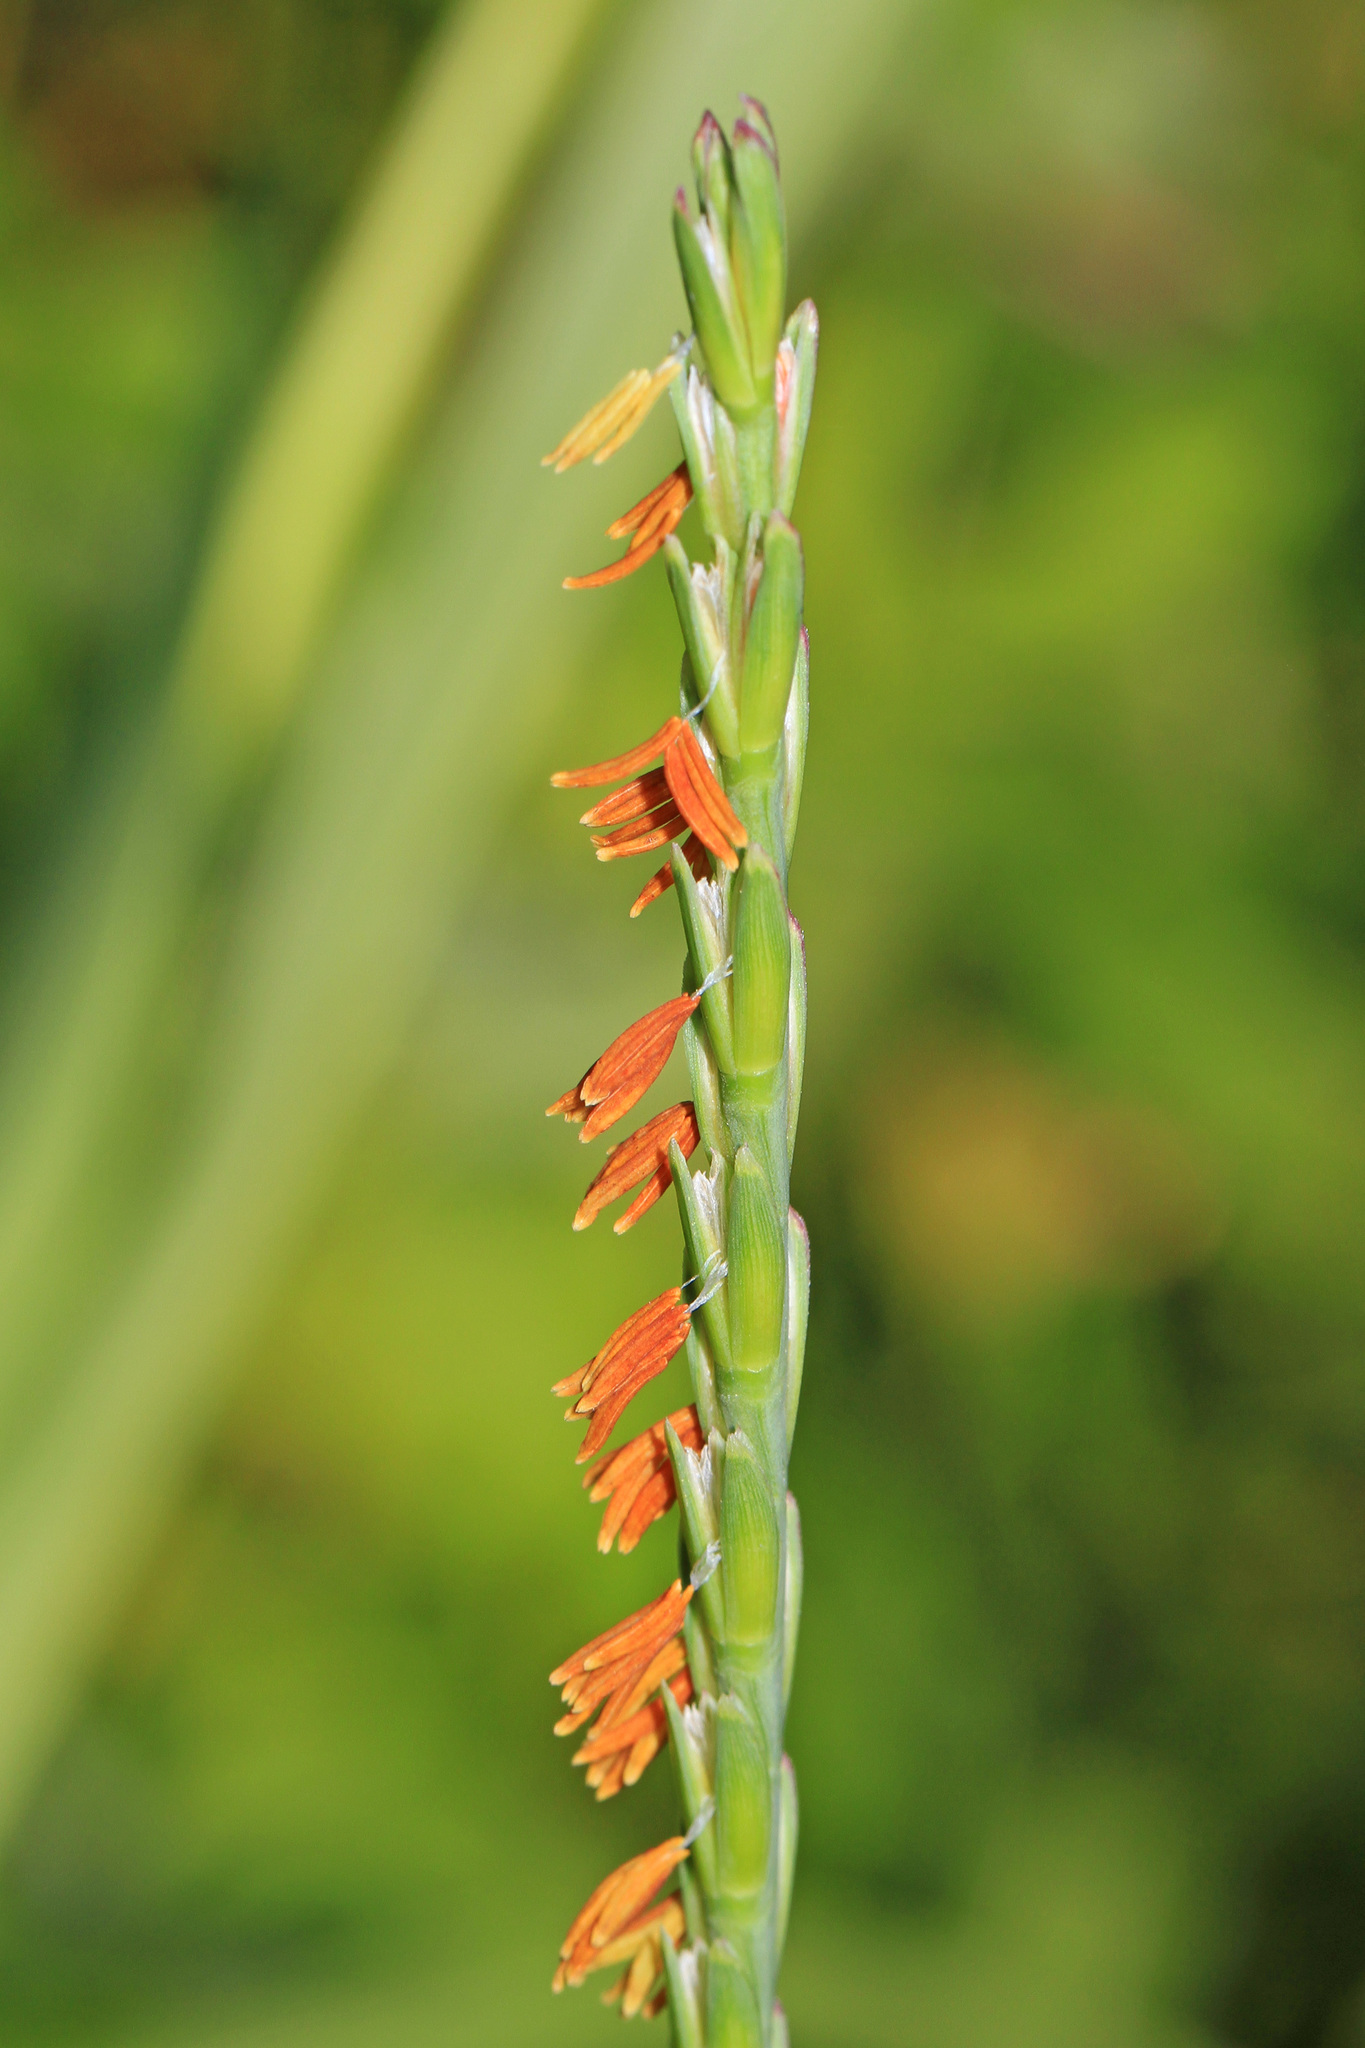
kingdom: Plantae
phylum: Tracheophyta
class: Liliopsida
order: Poales
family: Poaceae
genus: Tripsacum
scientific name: Tripsacum dactyloides
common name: Buffalo-grass
